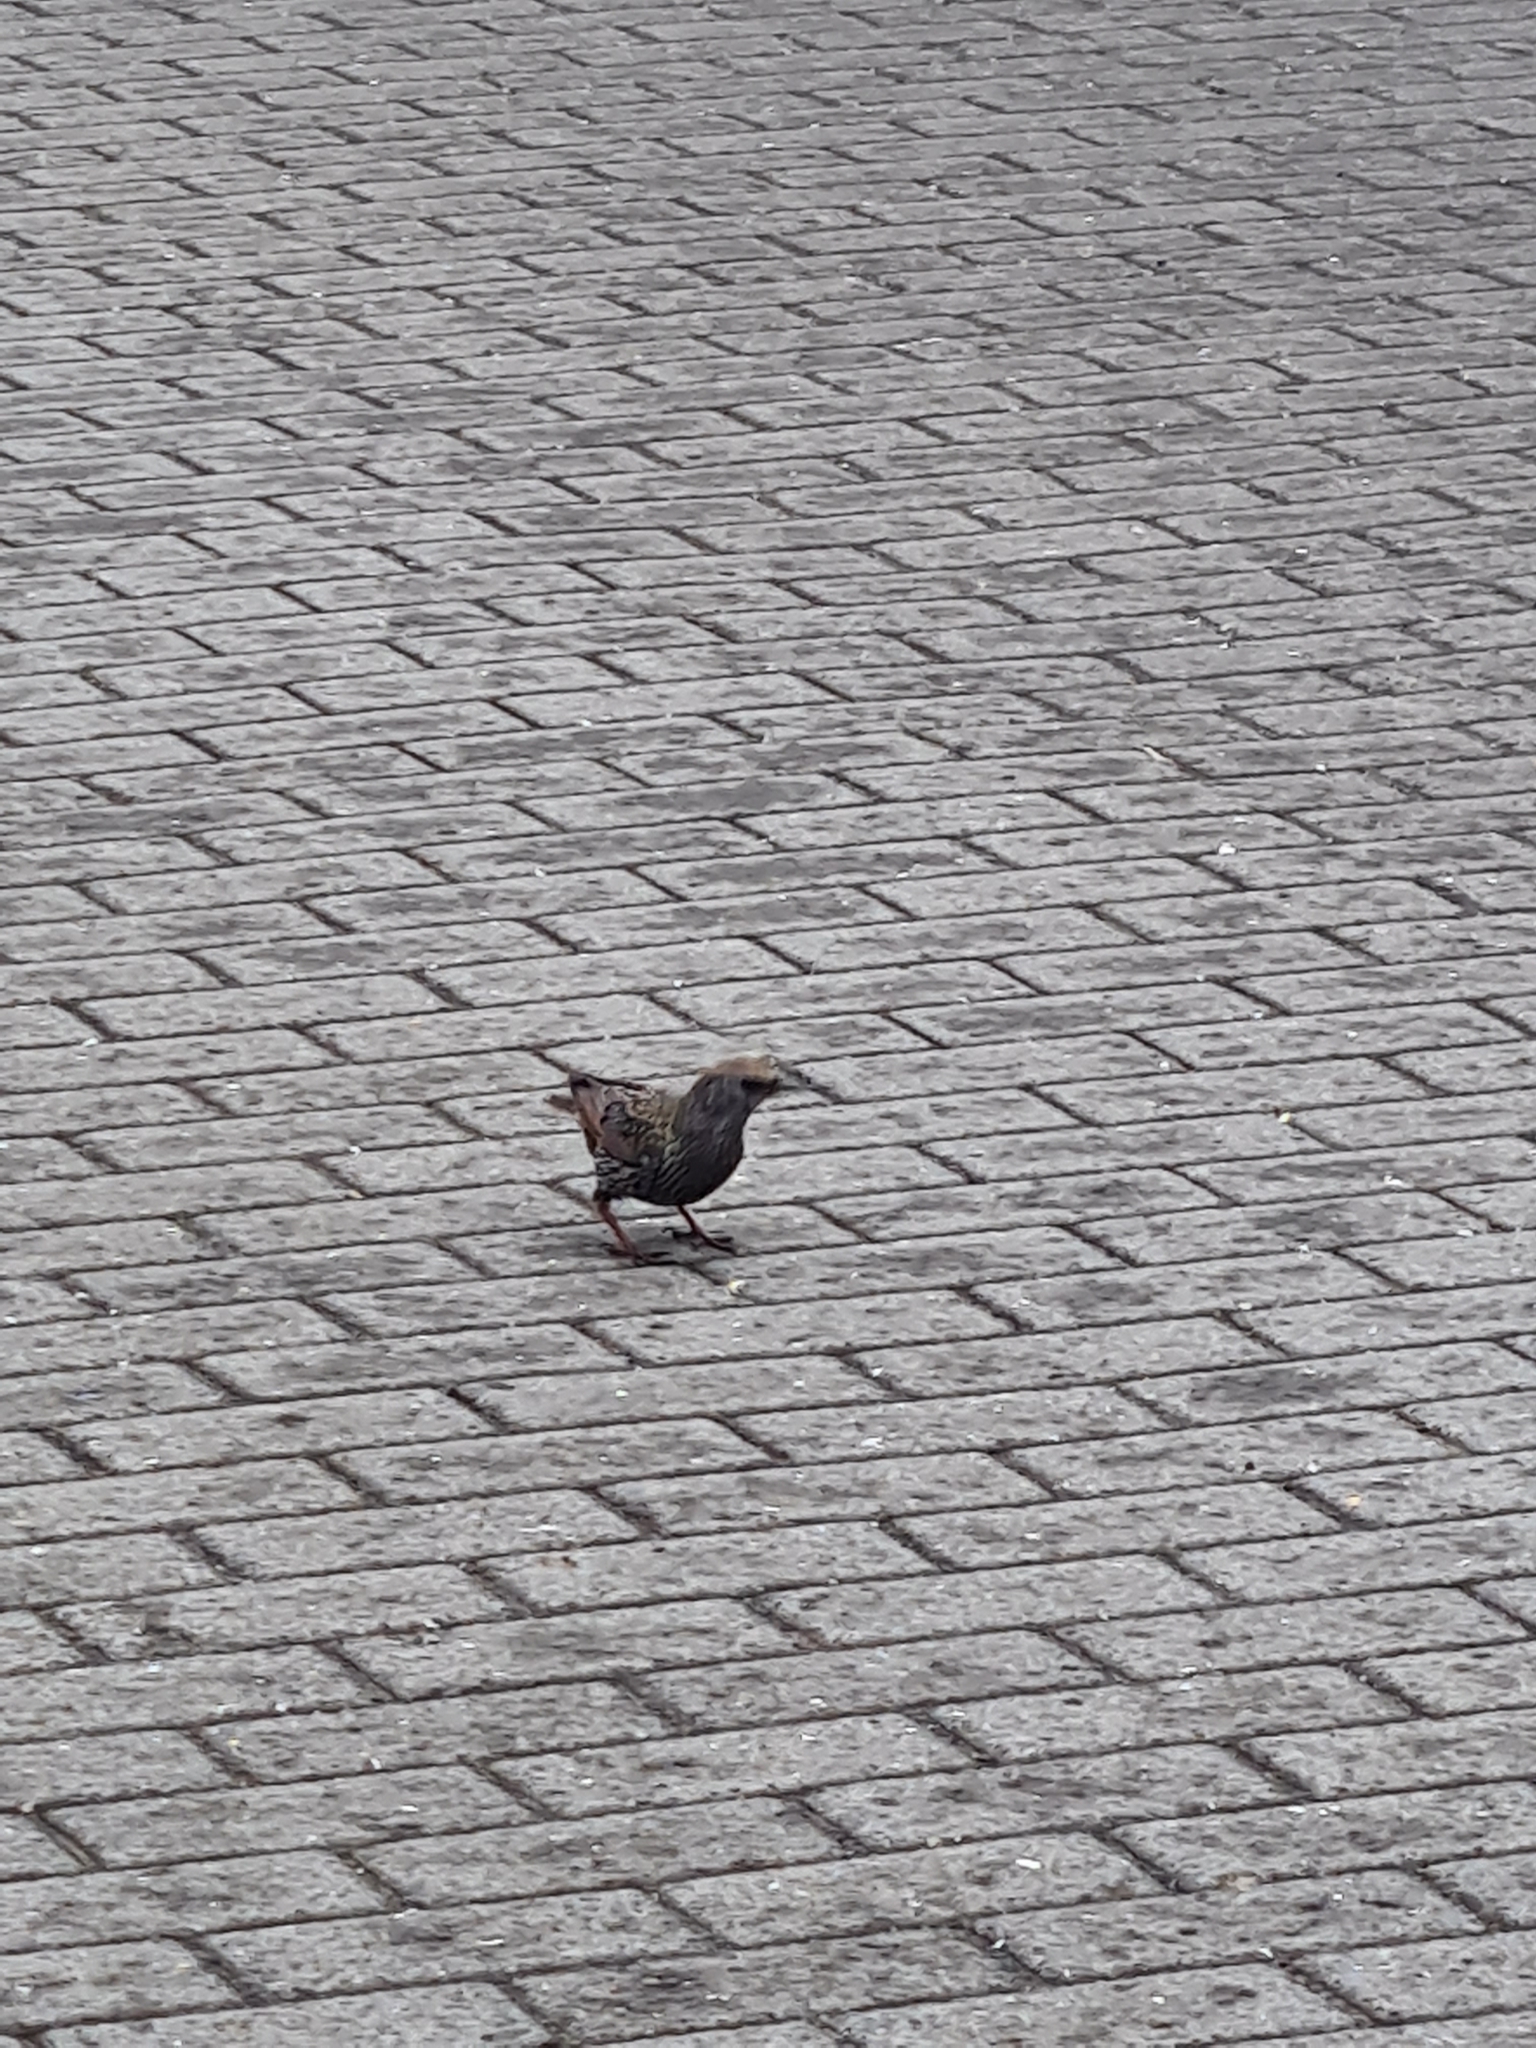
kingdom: Animalia
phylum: Chordata
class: Aves
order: Passeriformes
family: Sturnidae
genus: Sturnus
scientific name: Sturnus vulgaris
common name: Common starling
